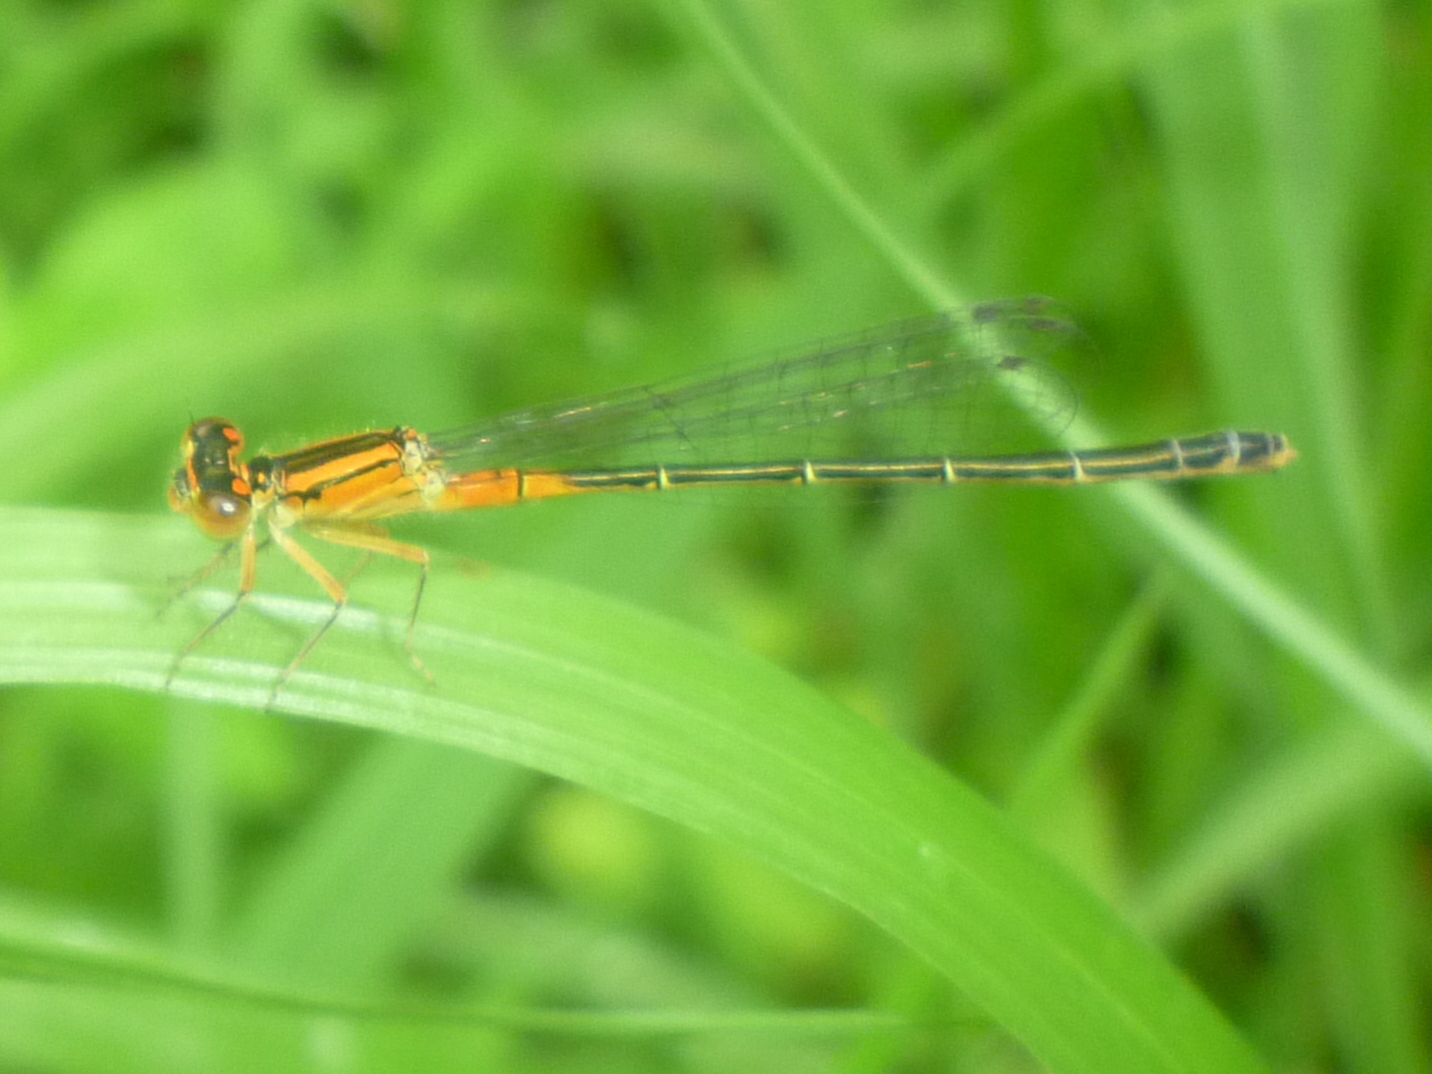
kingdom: Animalia
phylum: Arthropoda
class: Insecta
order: Odonata
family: Coenagrionidae
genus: Ischnura
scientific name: Ischnura verticalis
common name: Eastern forktail
